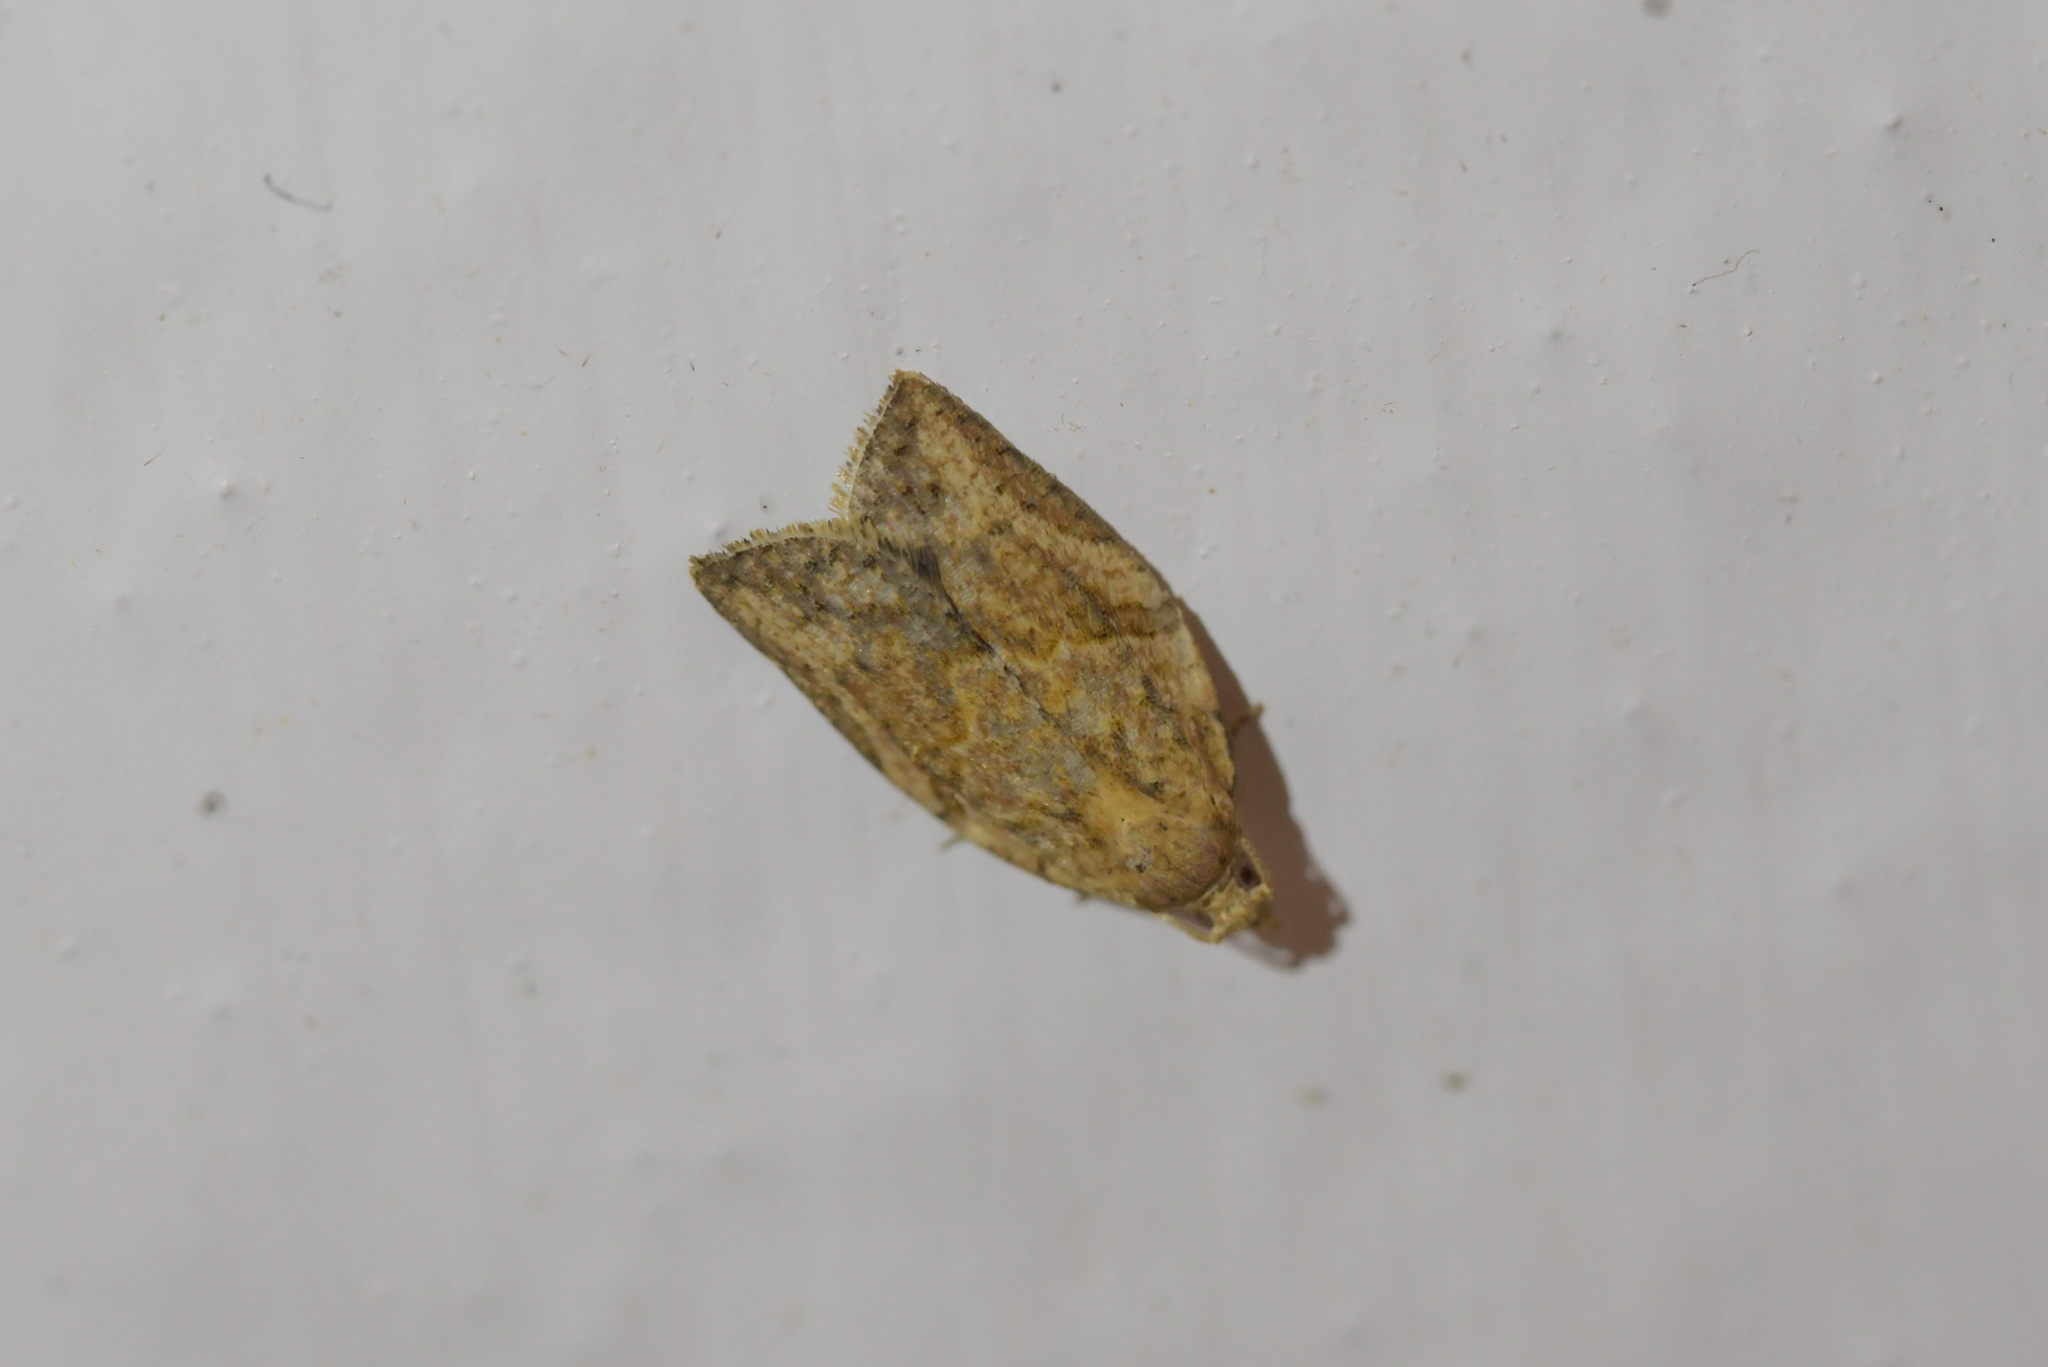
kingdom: Animalia
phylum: Arthropoda
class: Insecta
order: Lepidoptera
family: Tortricidae
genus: Epiphyas
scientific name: Epiphyas postvittana
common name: Light brown apple moth
